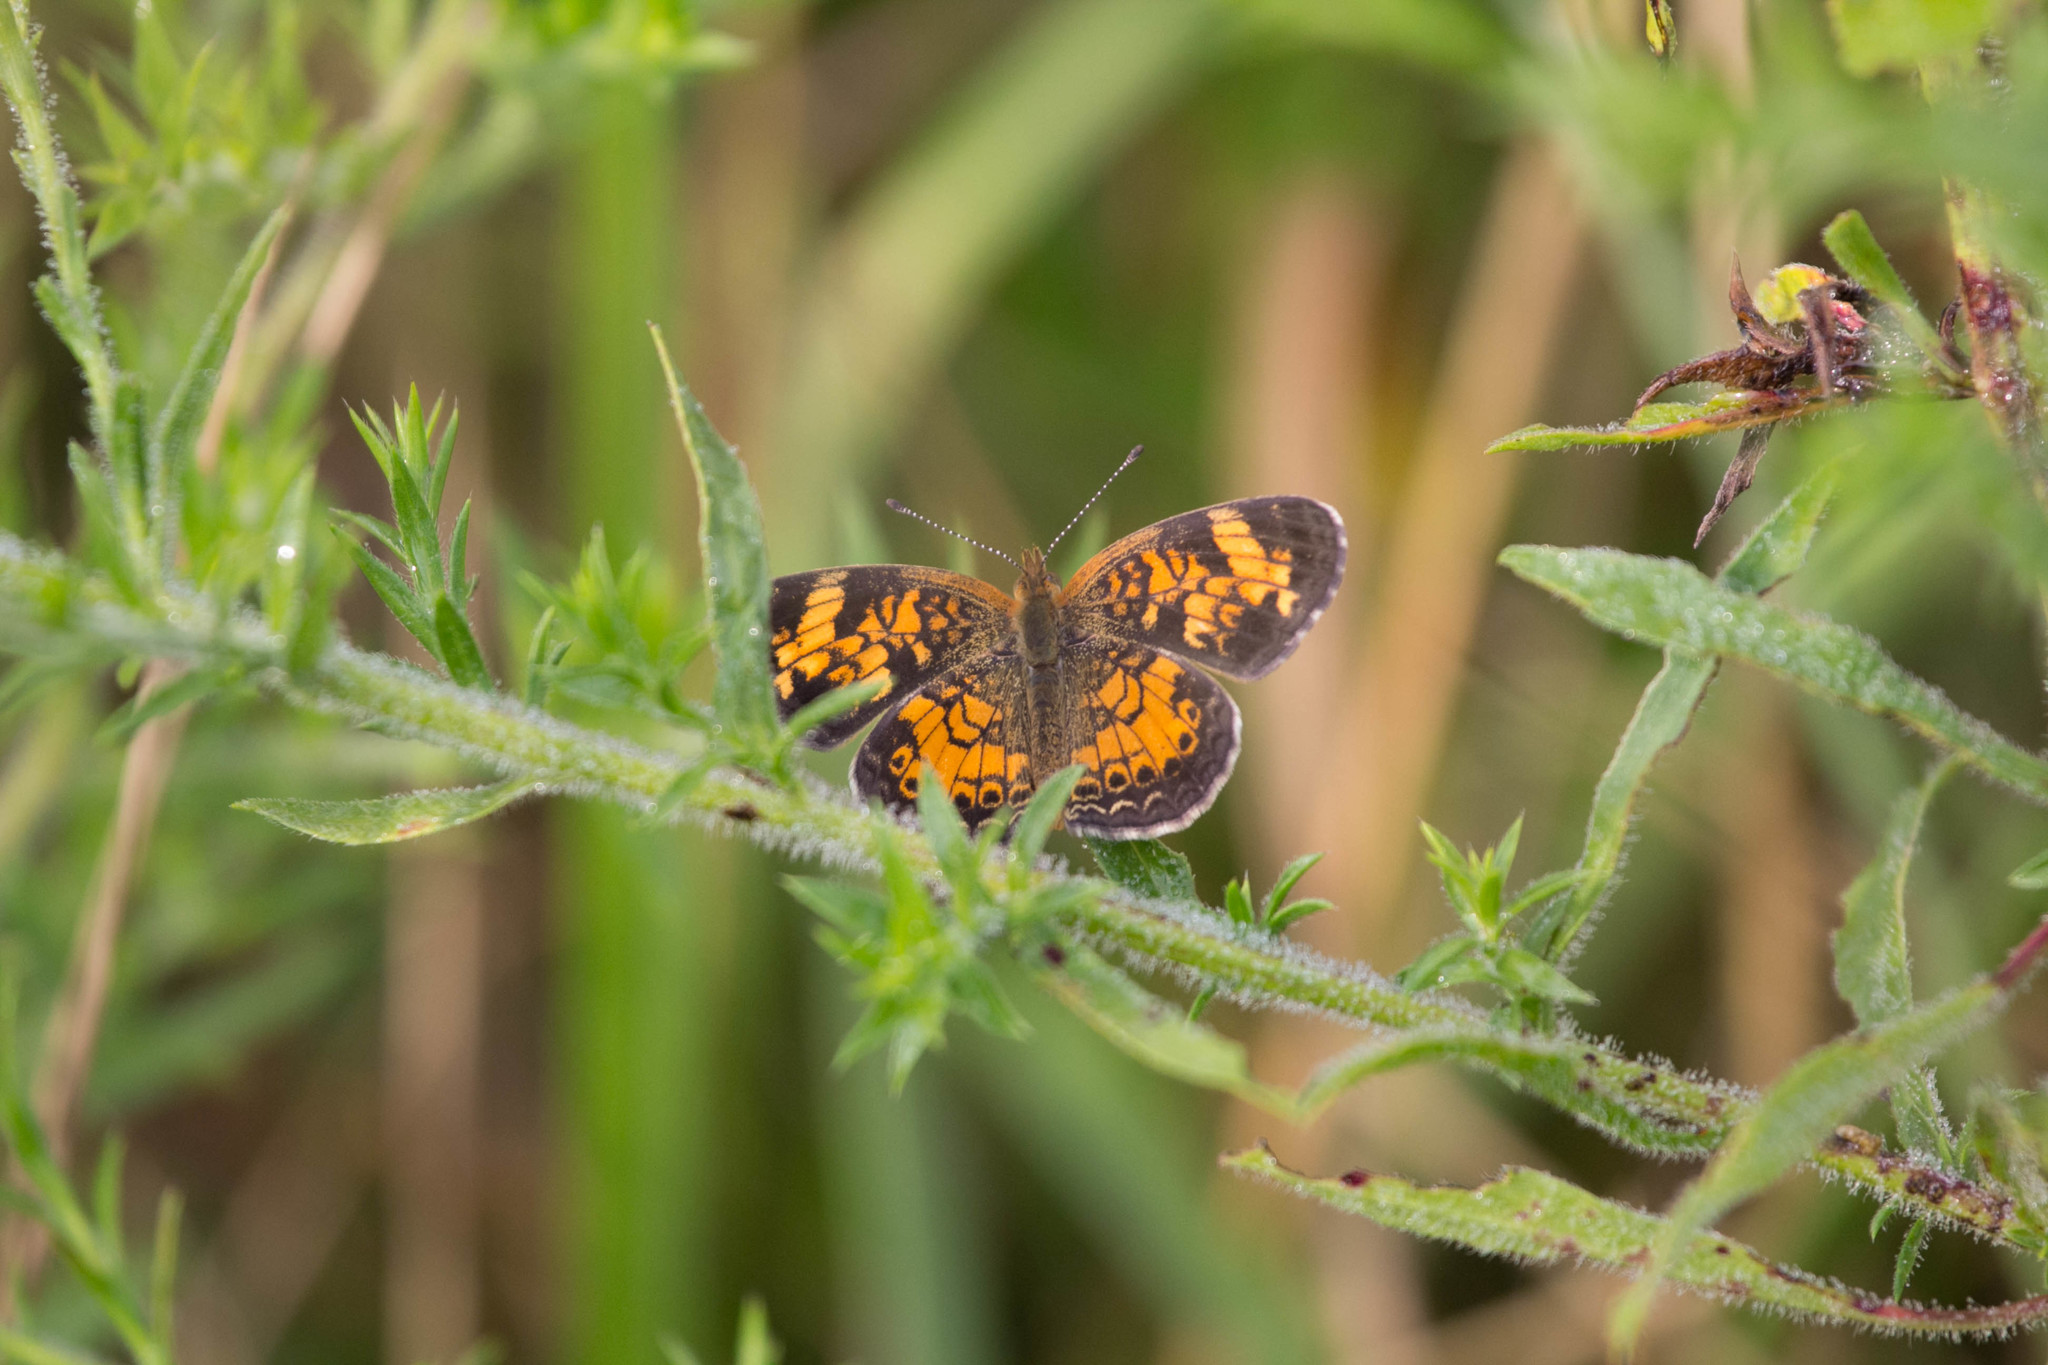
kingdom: Animalia
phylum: Arthropoda
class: Insecta
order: Lepidoptera
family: Nymphalidae
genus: Phyciodes
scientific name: Phyciodes tharos
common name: Pearl crescent
